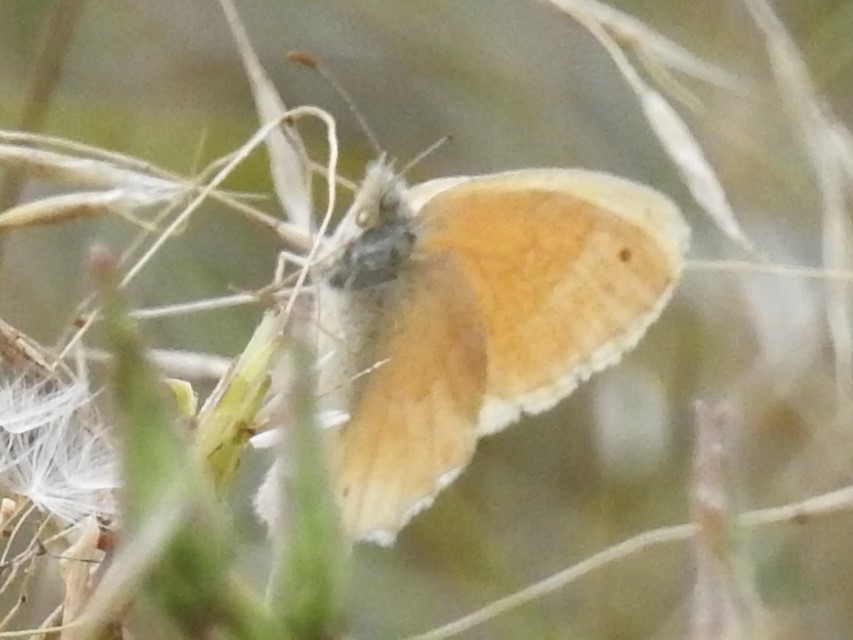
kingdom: Animalia
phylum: Arthropoda
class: Insecta
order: Lepidoptera
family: Nymphalidae
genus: Coenonympha
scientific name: Coenonympha california
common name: Common ringlet
